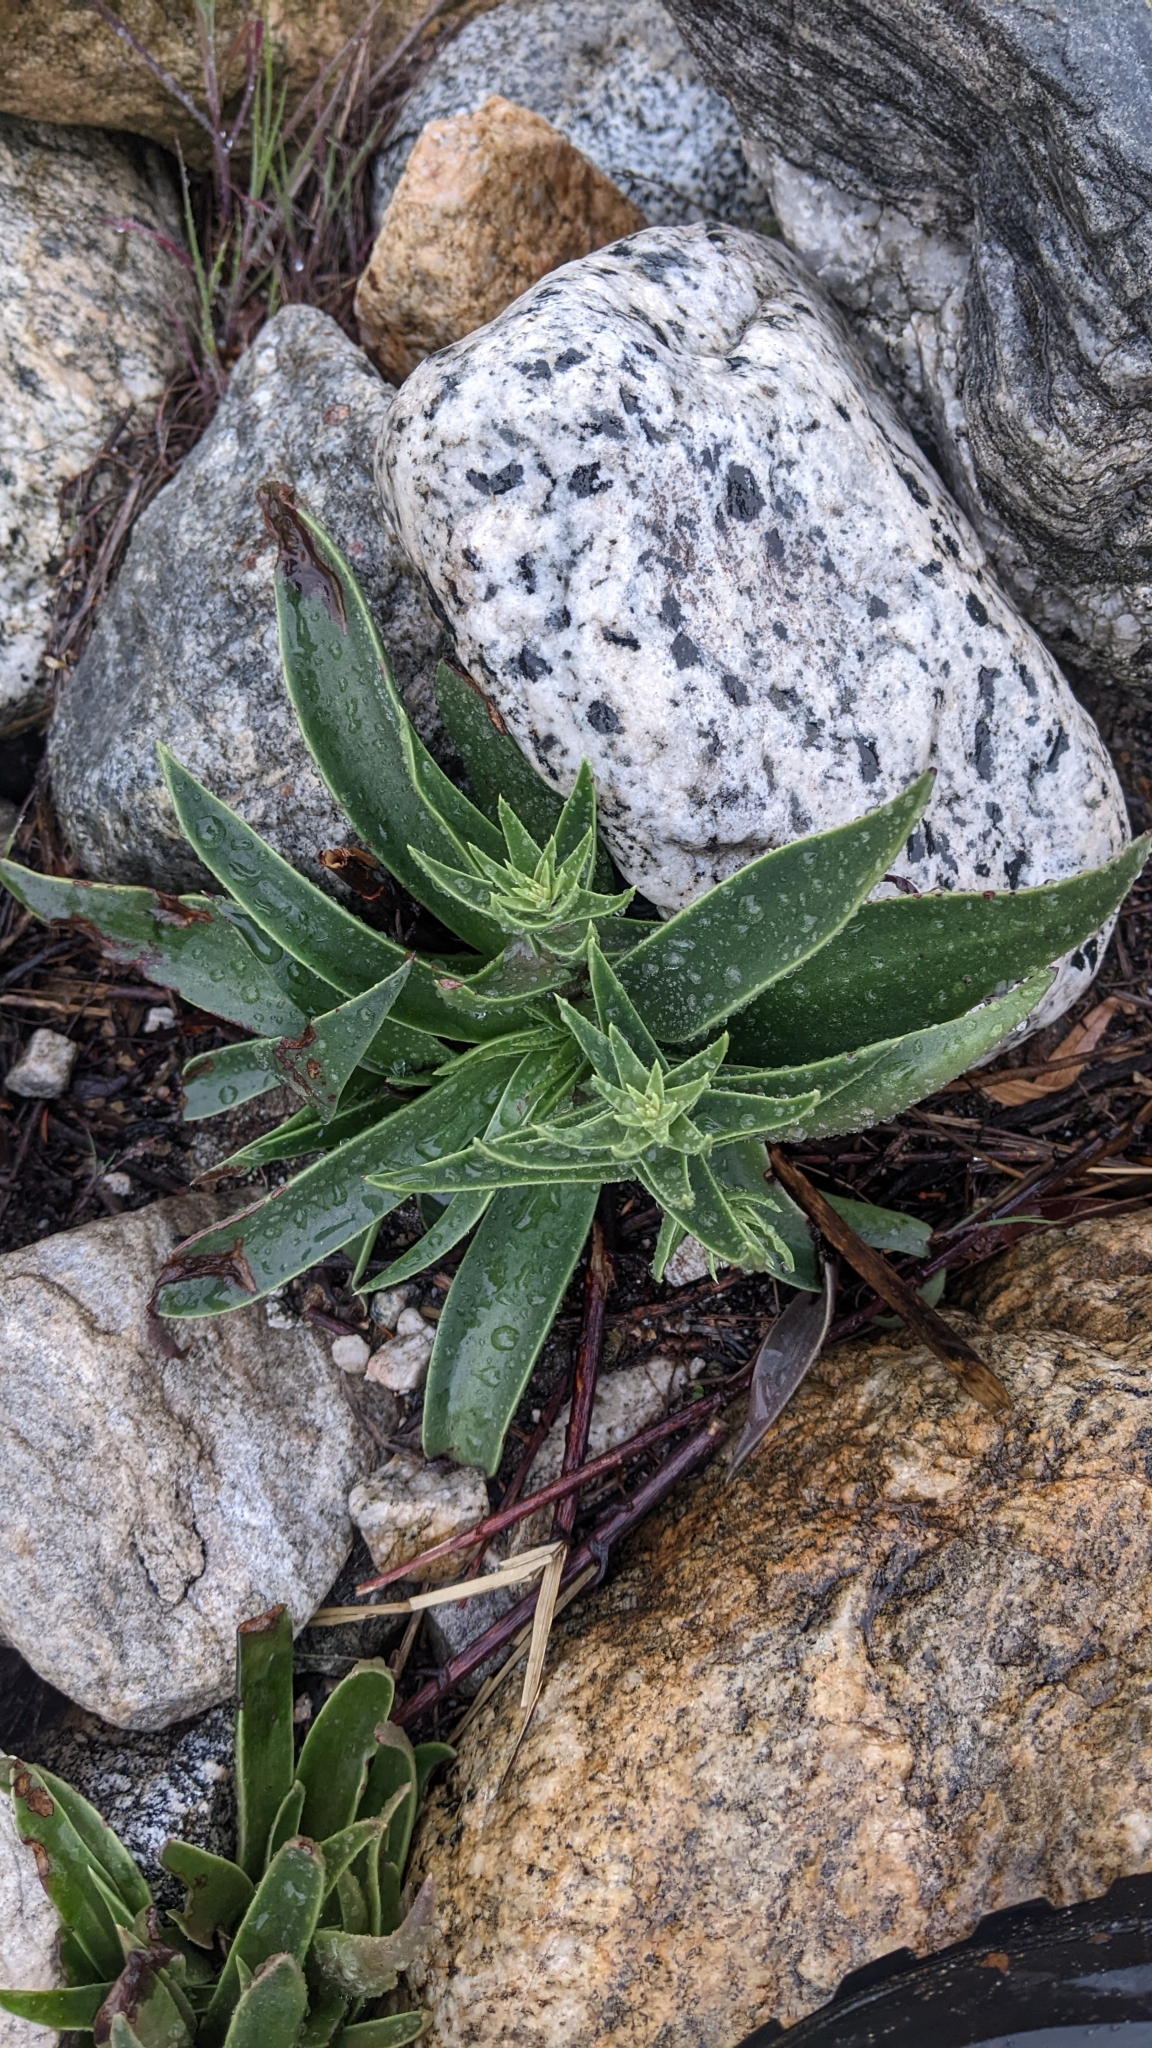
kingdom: Plantae
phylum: Tracheophyta
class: Magnoliopsida
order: Saxifragales
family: Crassulaceae
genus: Dudleya
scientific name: Dudleya lanceolata
